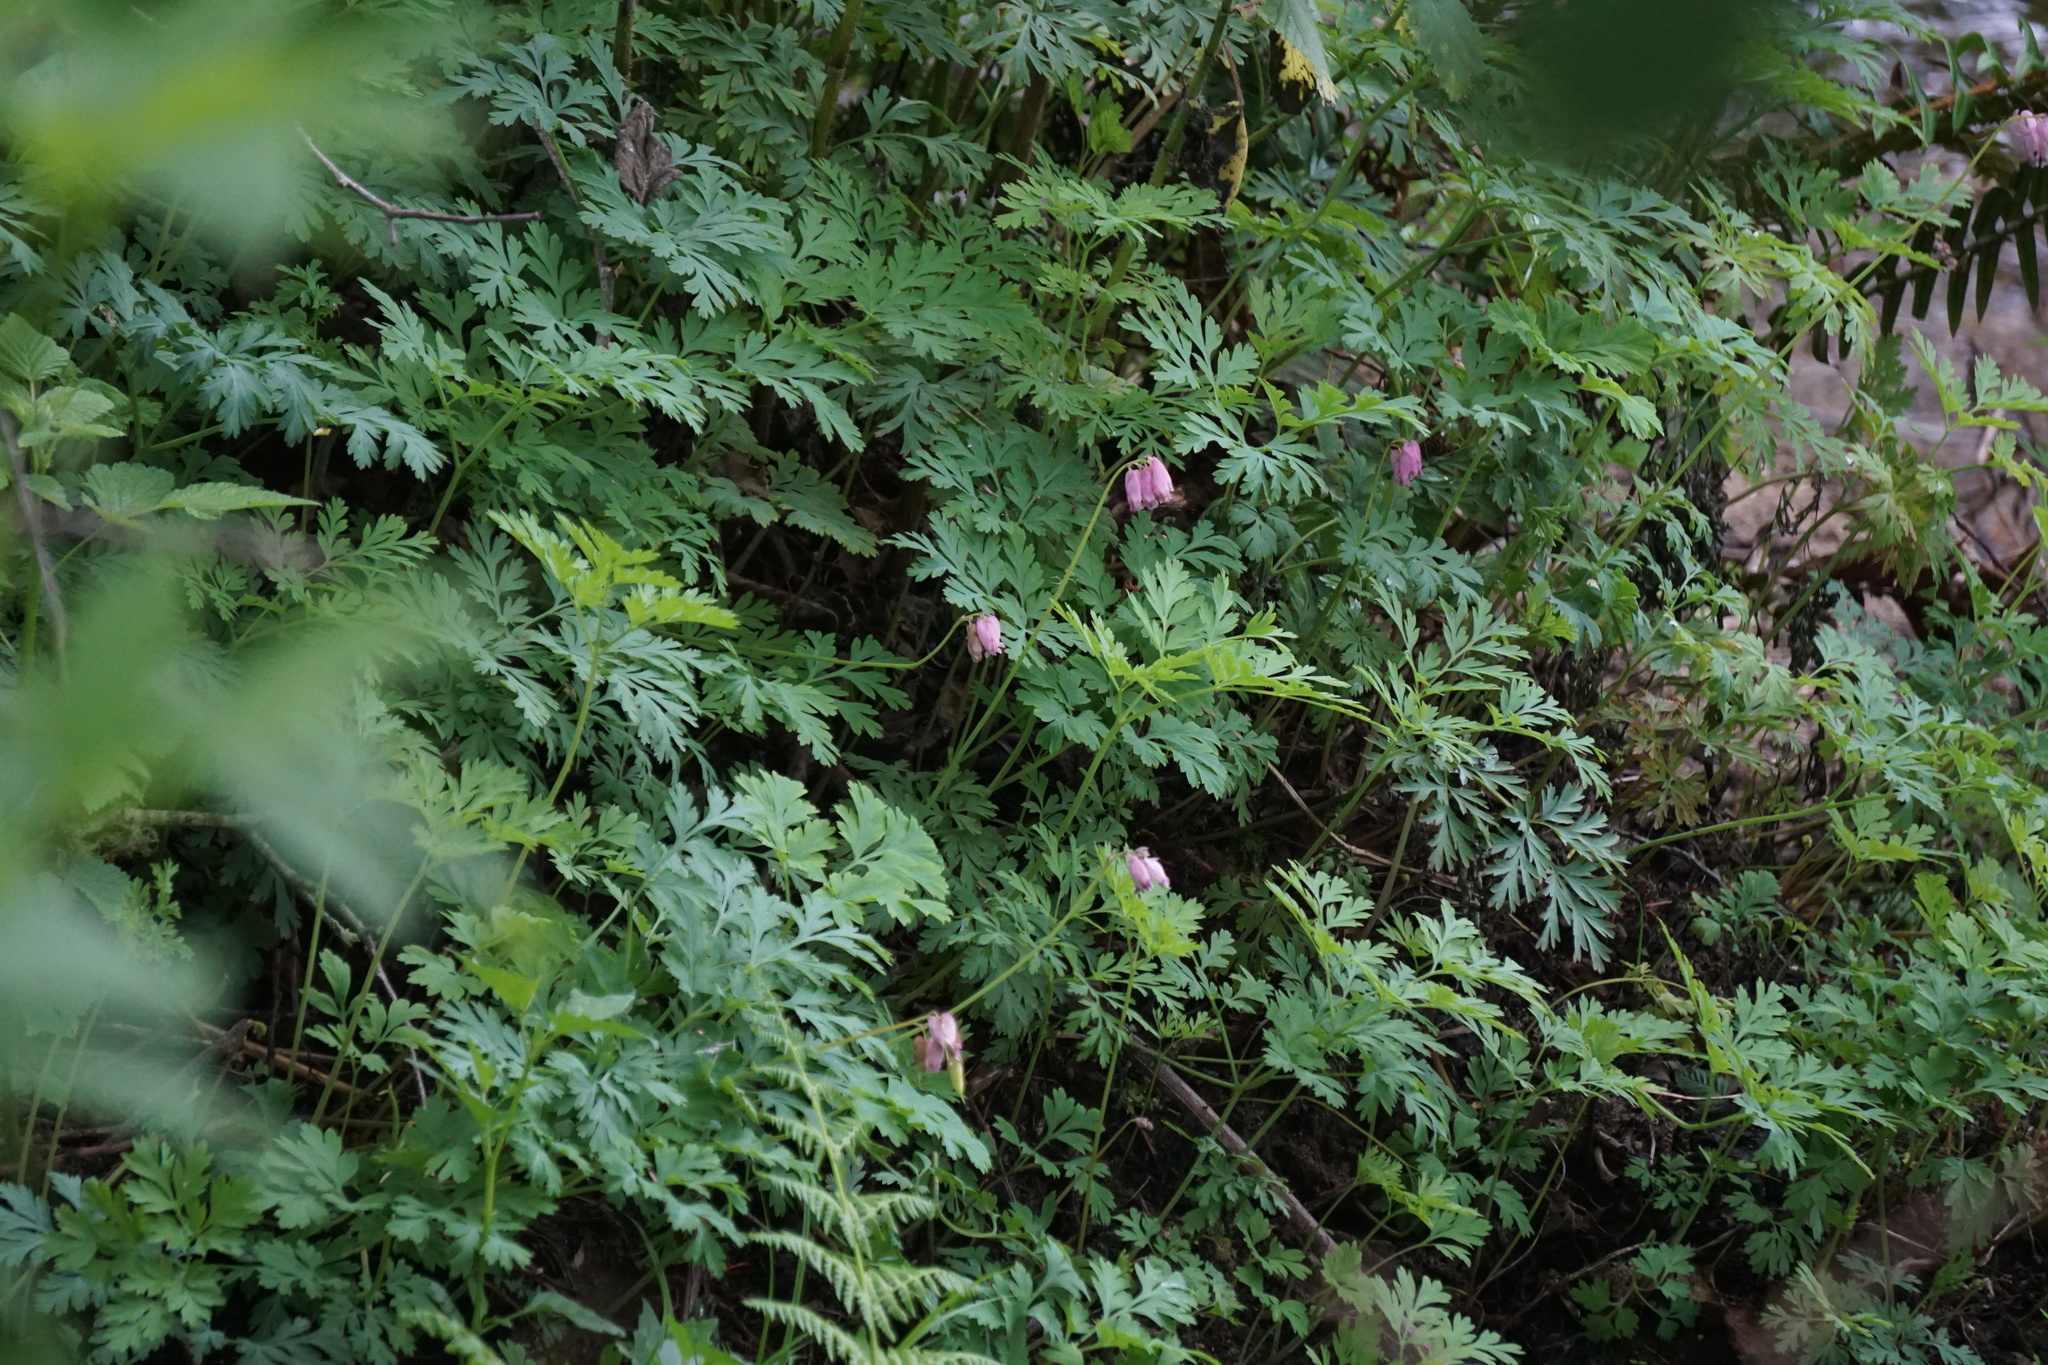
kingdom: Plantae
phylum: Tracheophyta
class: Magnoliopsida
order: Ranunculales
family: Papaveraceae
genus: Dicentra
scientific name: Dicentra formosa
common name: Bleeding-heart
